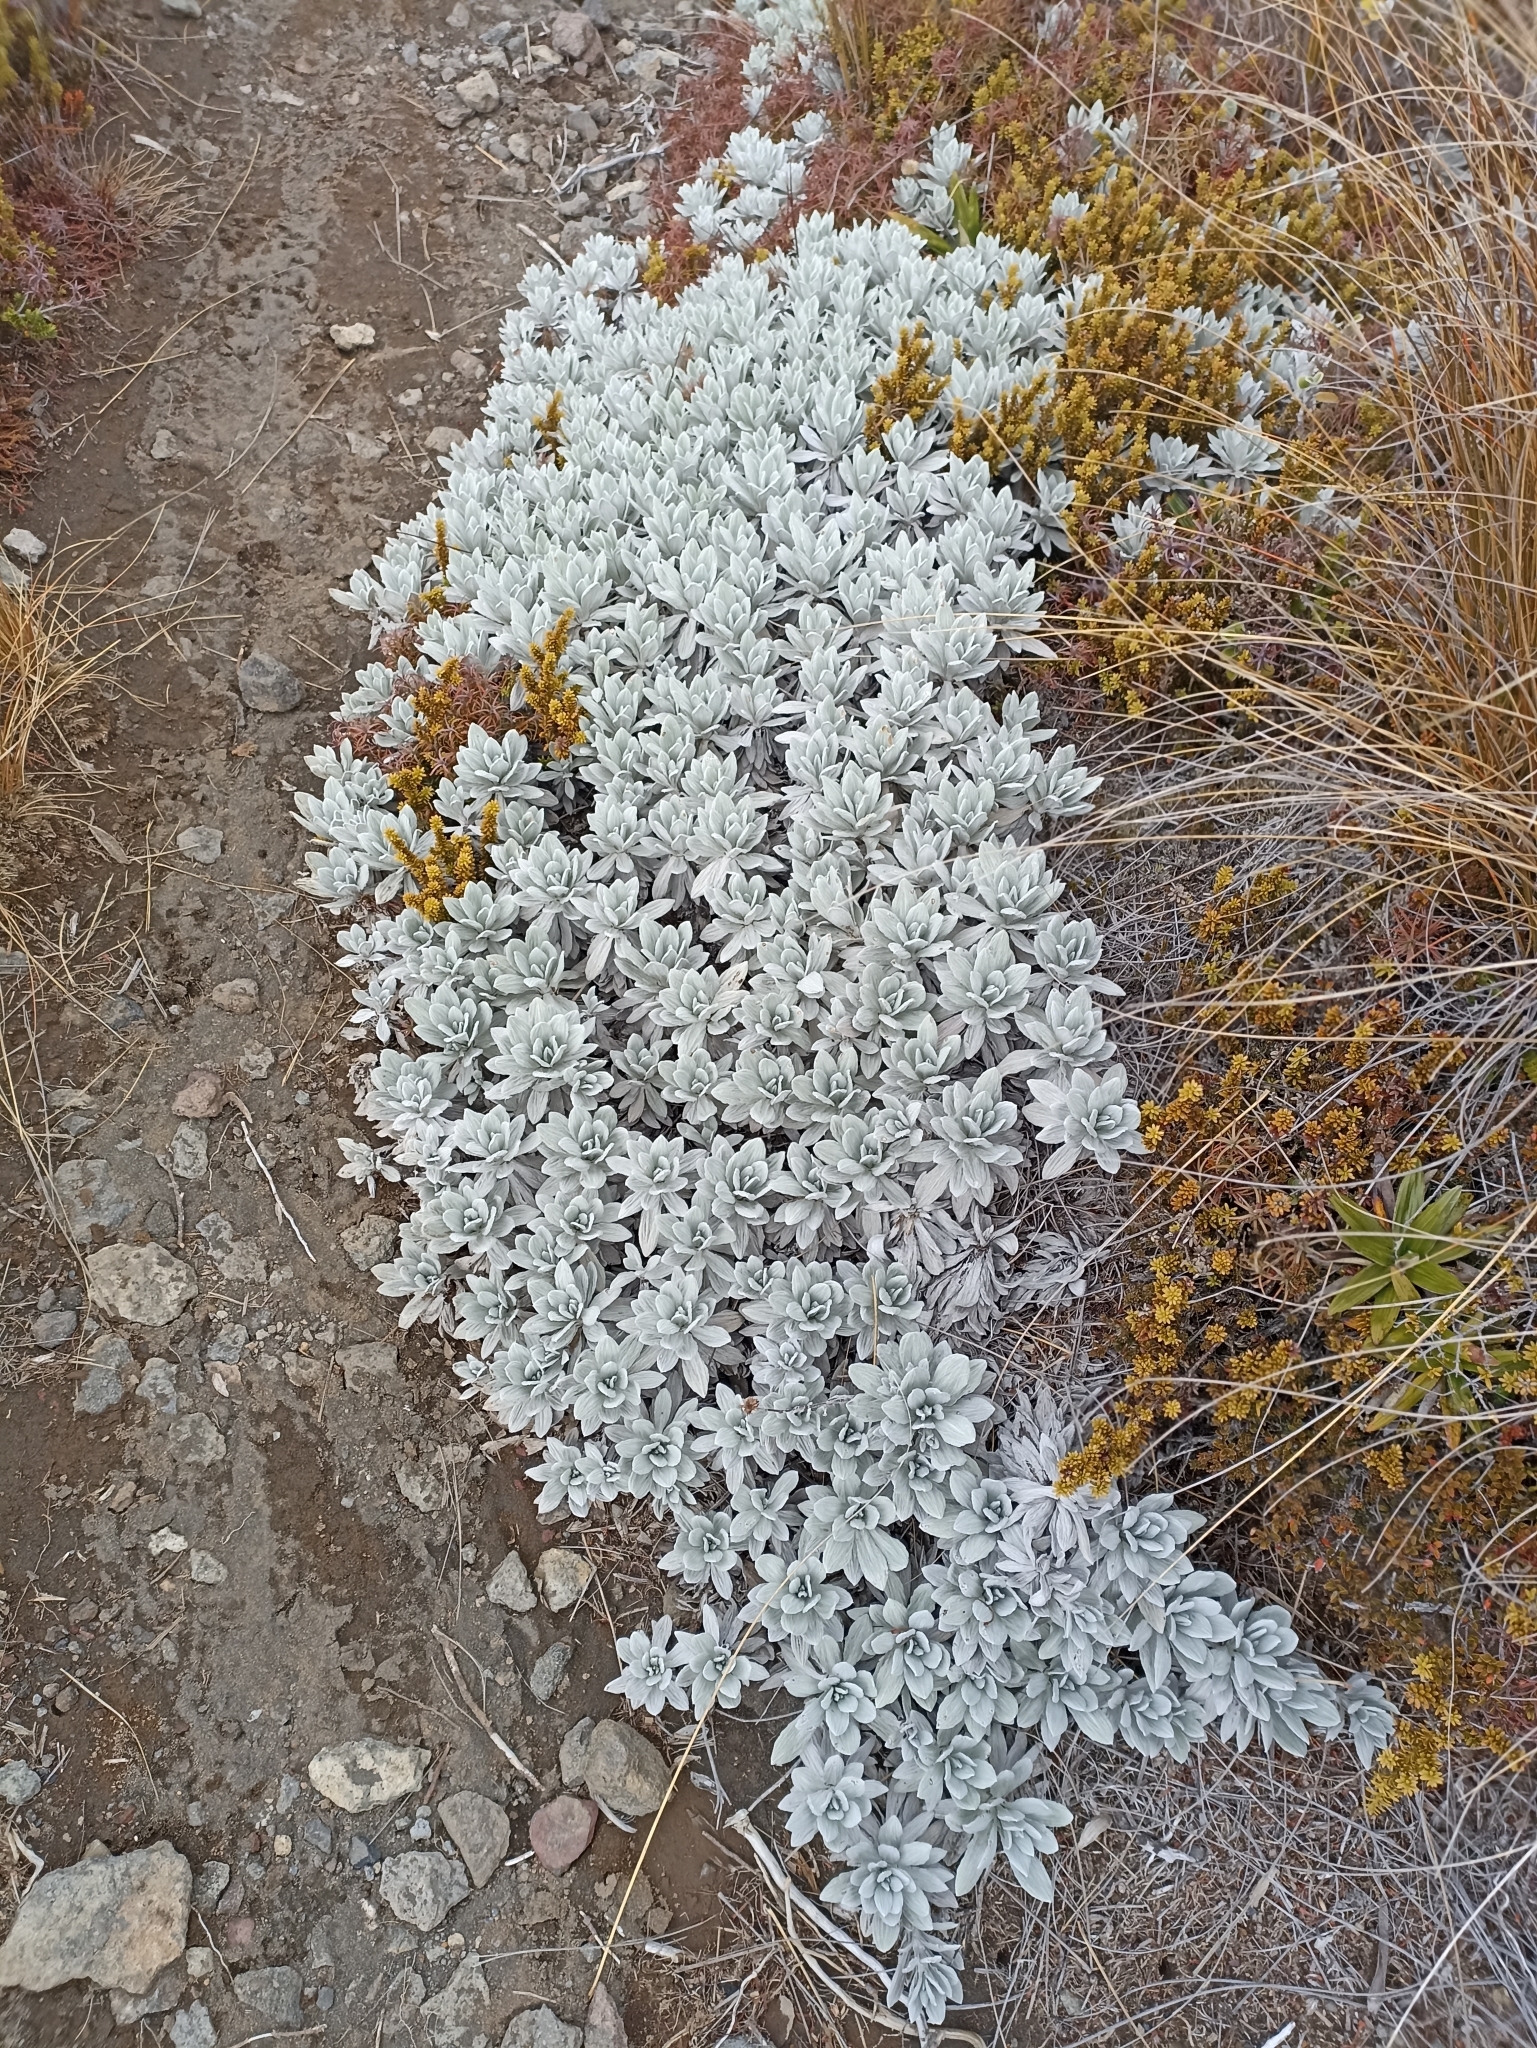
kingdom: Plantae
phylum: Tracheophyta
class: Magnoliopsida
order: Asterales
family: Asteraceae
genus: Celmisia
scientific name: Celmisia incana
